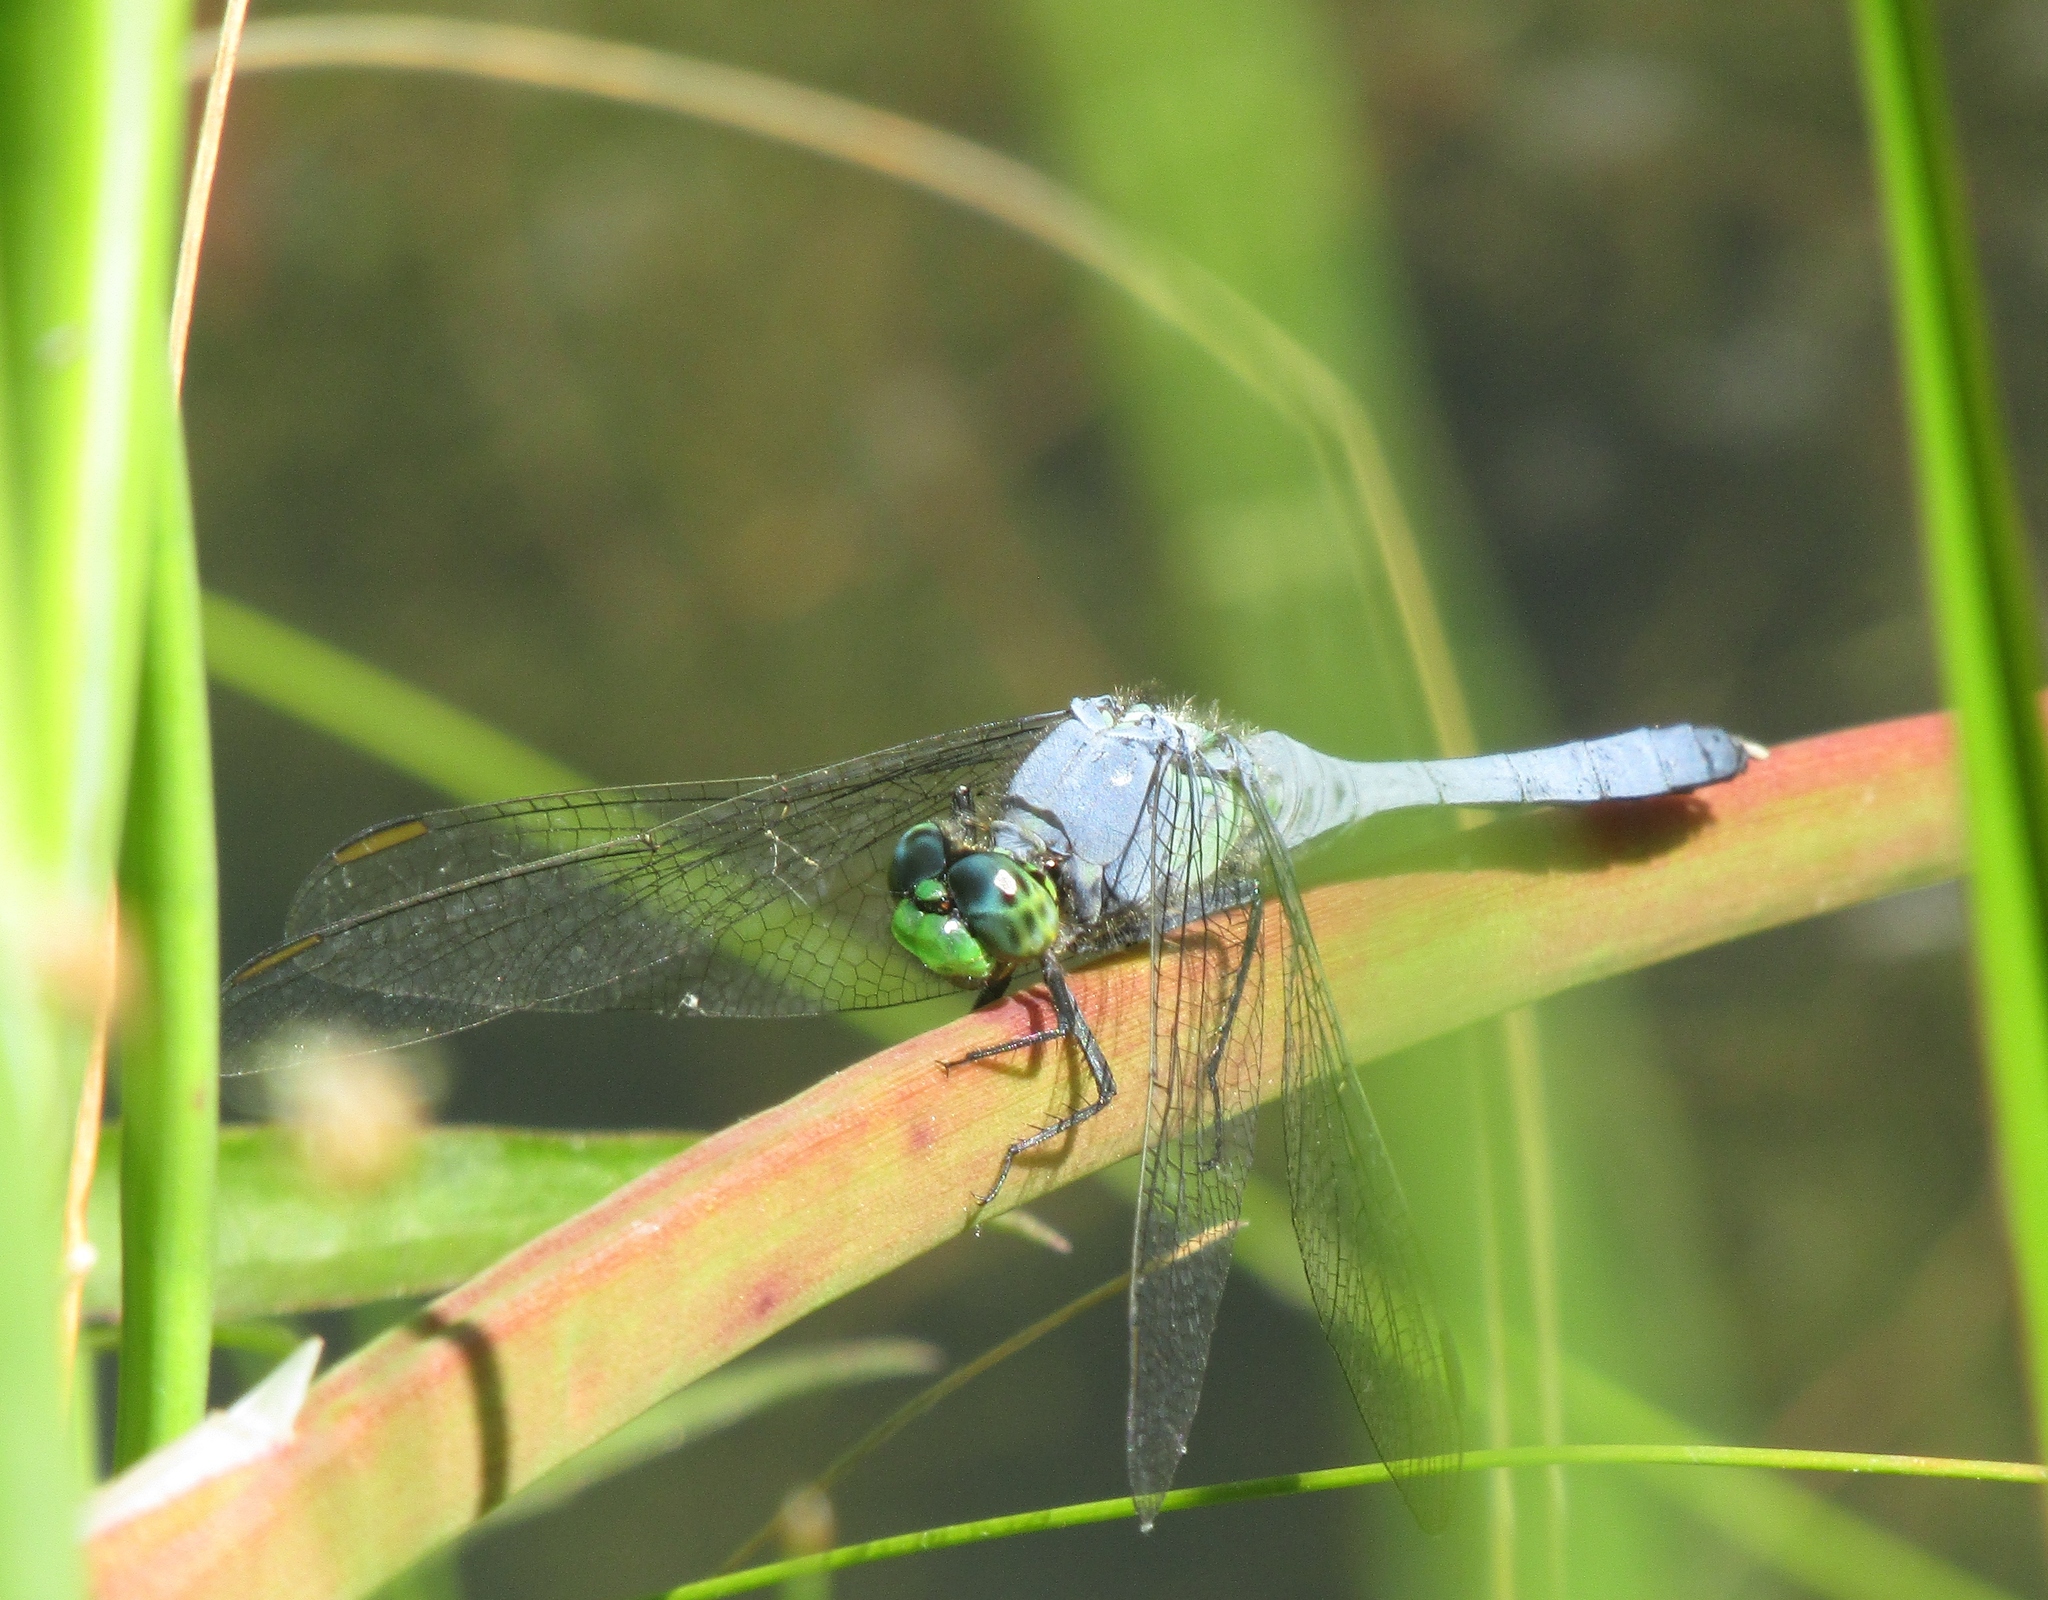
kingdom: Animalia
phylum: Arthropoda
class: Insecta
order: Odonata
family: Libellulidae
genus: Erythemis
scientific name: Erythemis simplicicollis
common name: Eastern pondhawk
